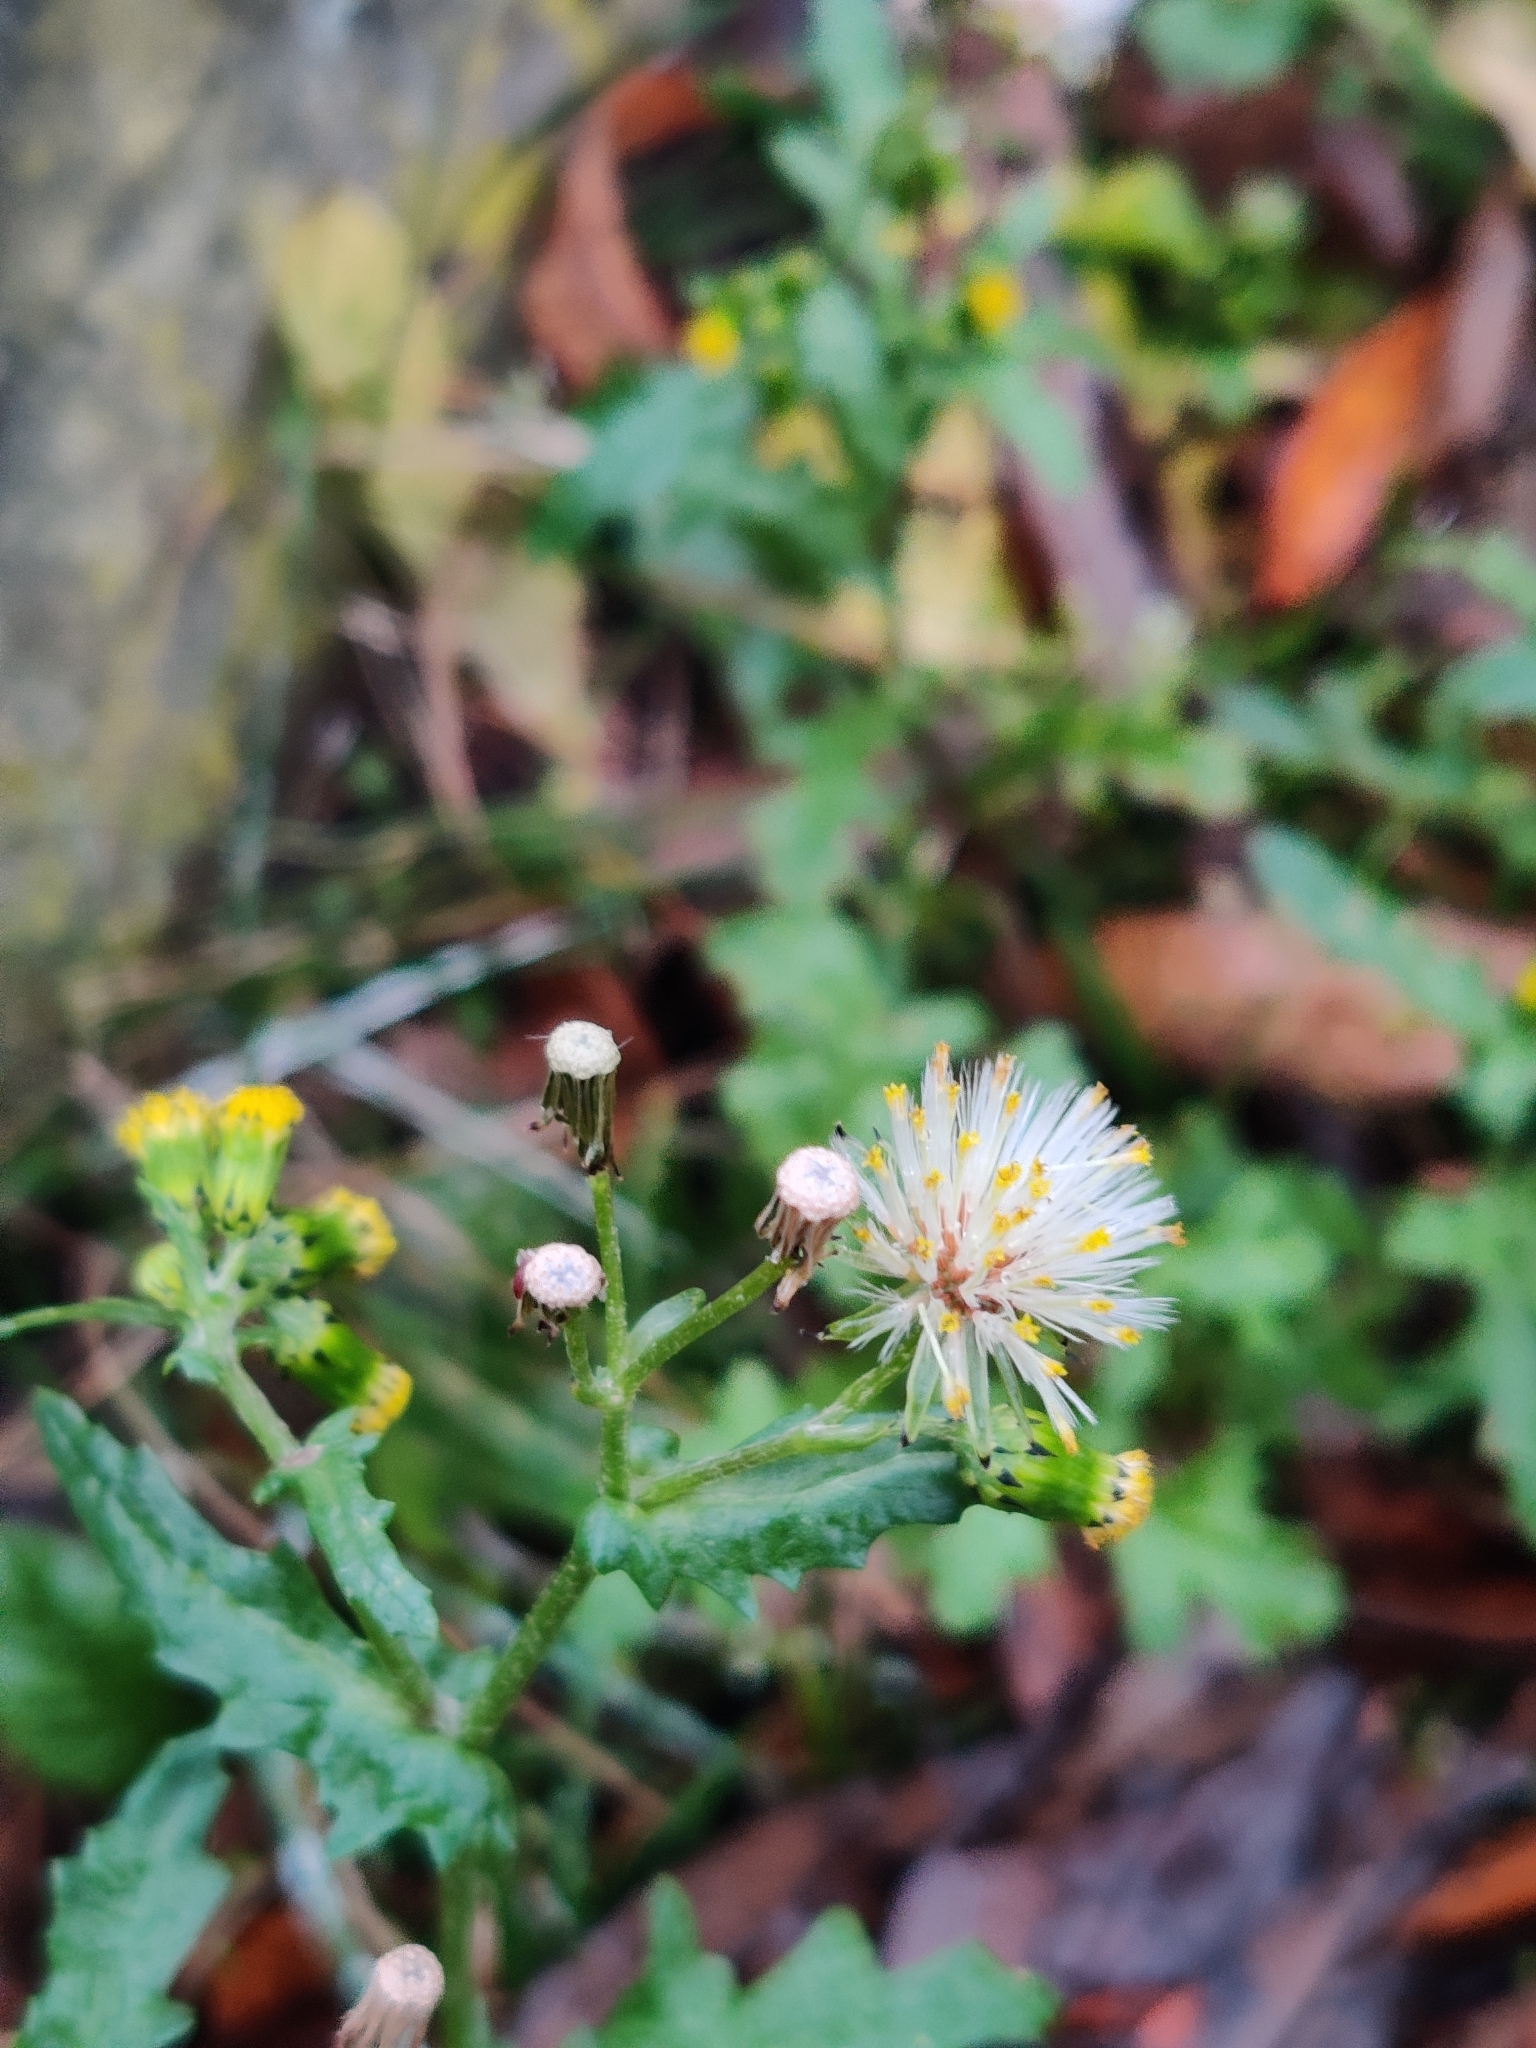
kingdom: Plantae
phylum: Tracheophyta
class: Magnoliopsida
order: Asterales
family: Asteraceae
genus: Senecio
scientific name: Senecio vulgaris
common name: Old-man-in-the-spring
